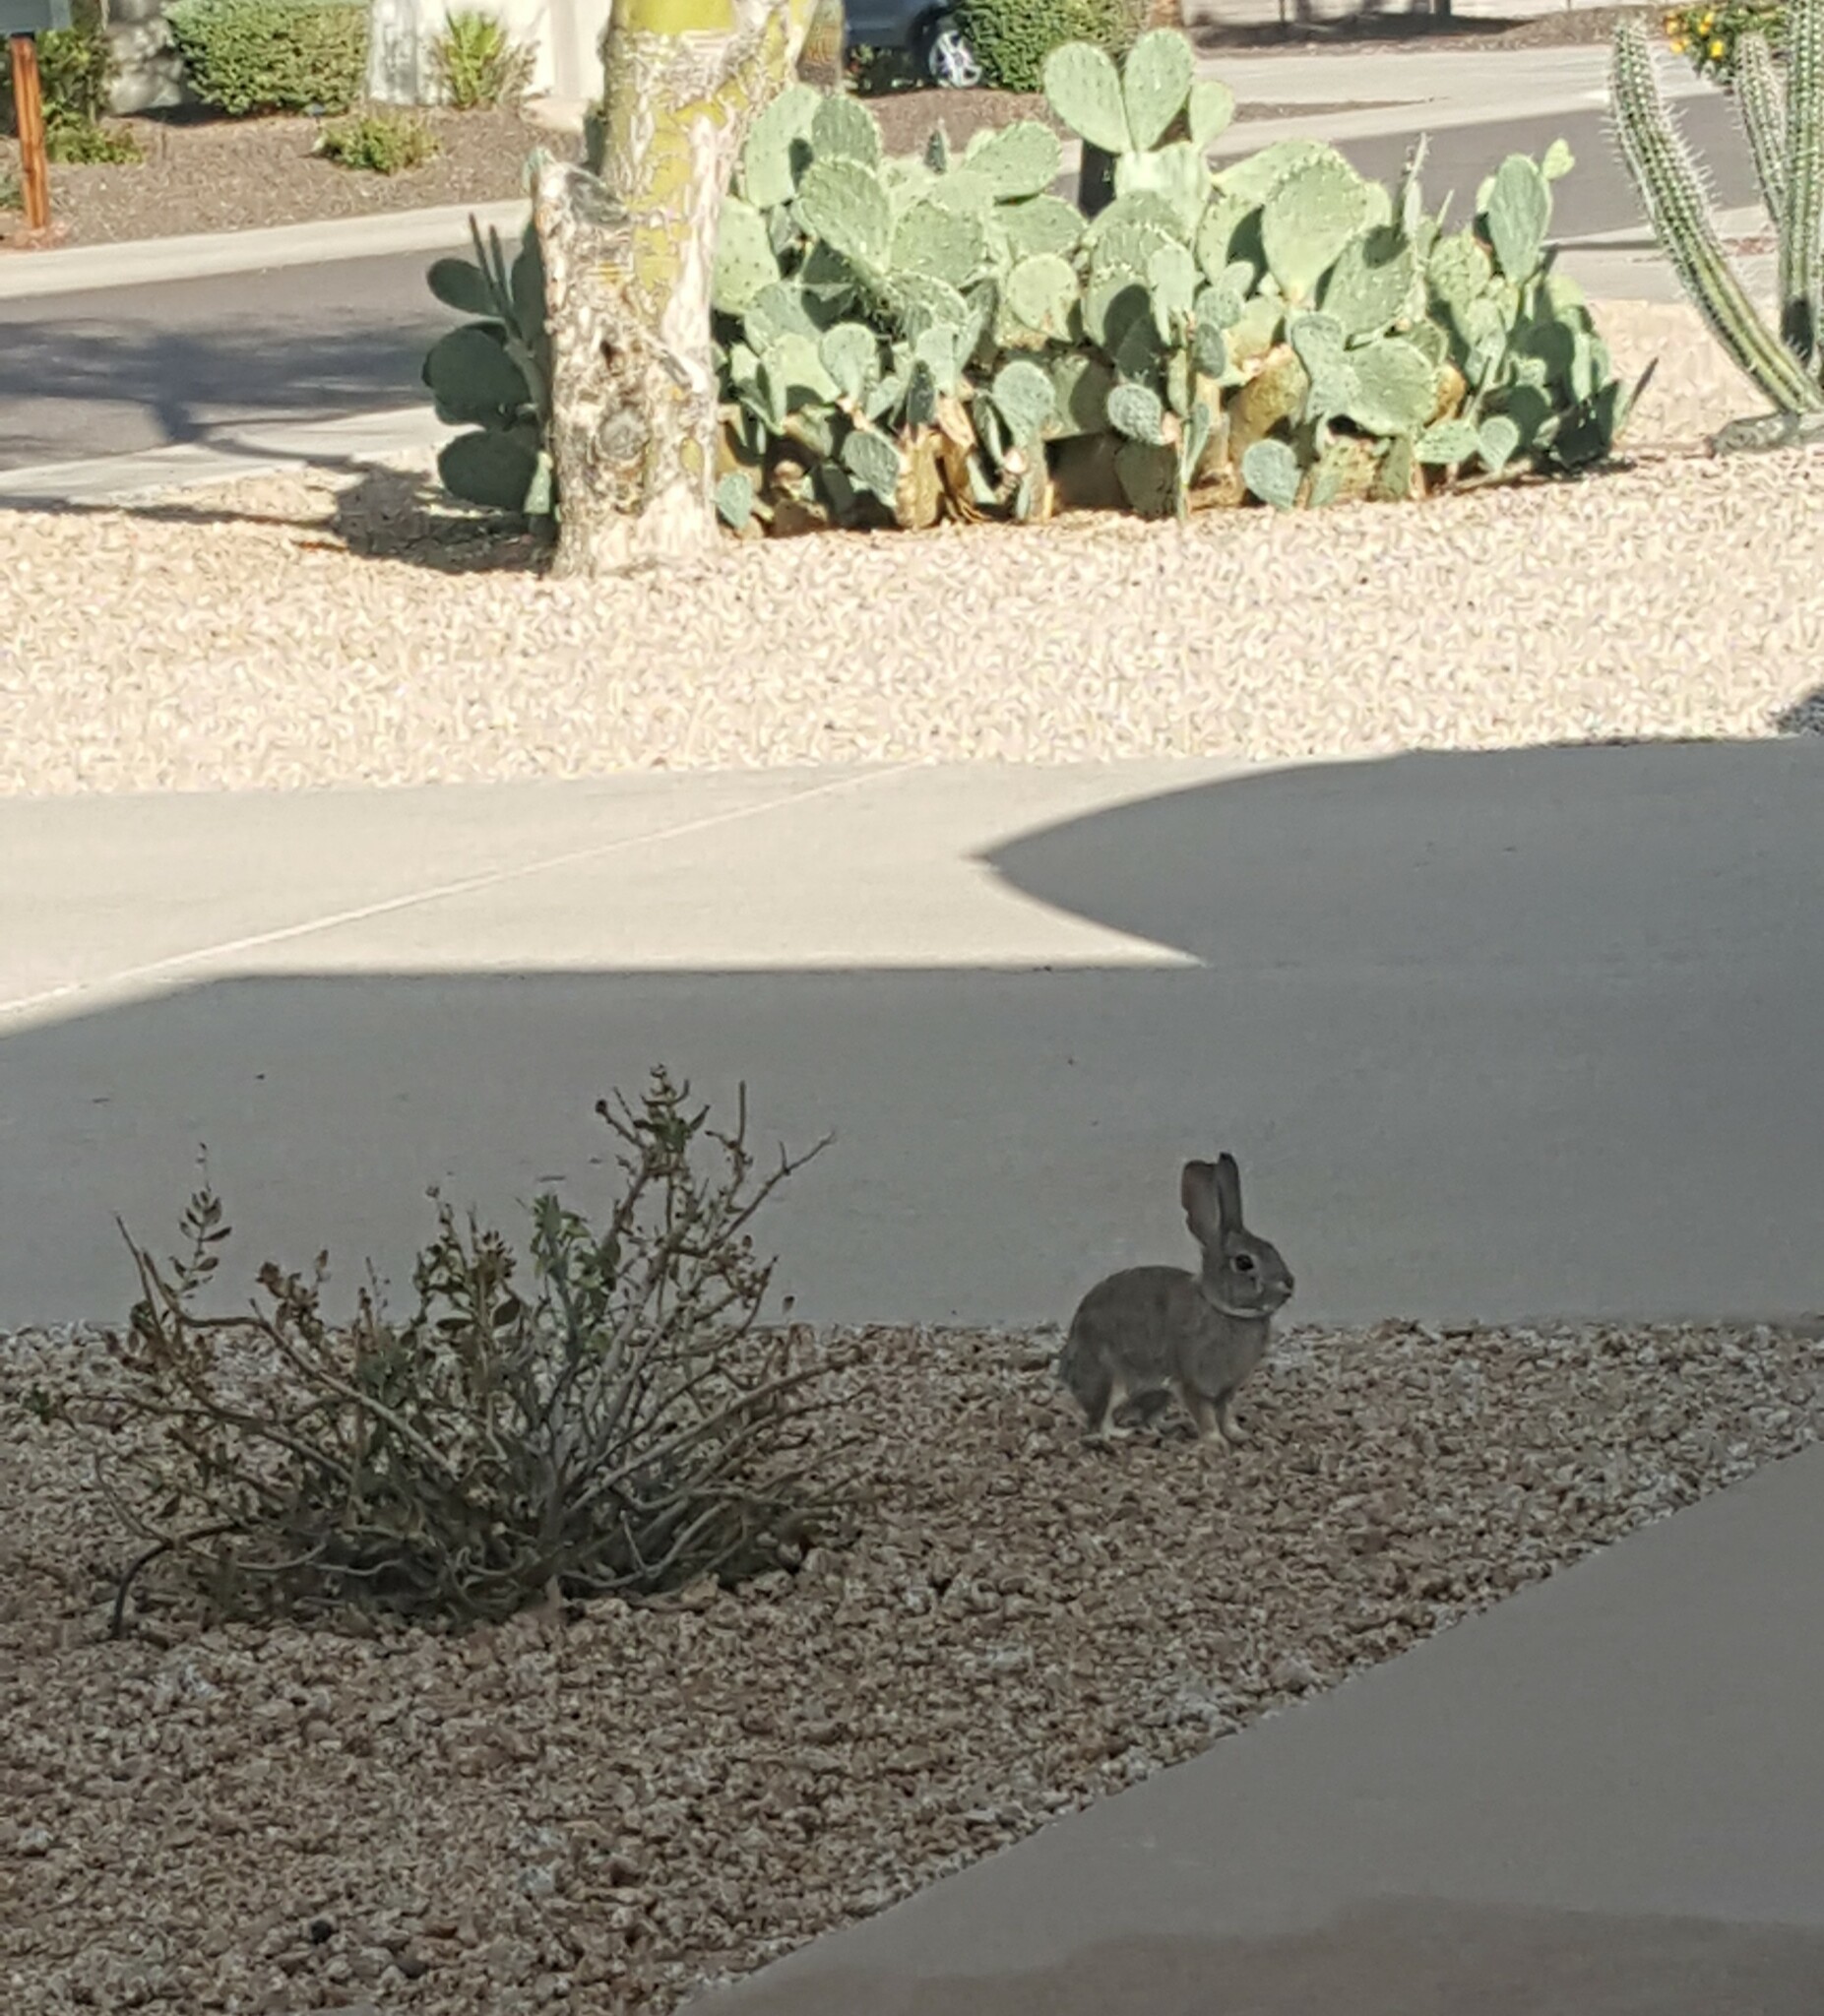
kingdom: Animalia
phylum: Chordata
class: Mammalia
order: Lagomorpha
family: Leporidae
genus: Sylvilagus
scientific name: Sylvilagus audubonii
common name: Desert cottontail
